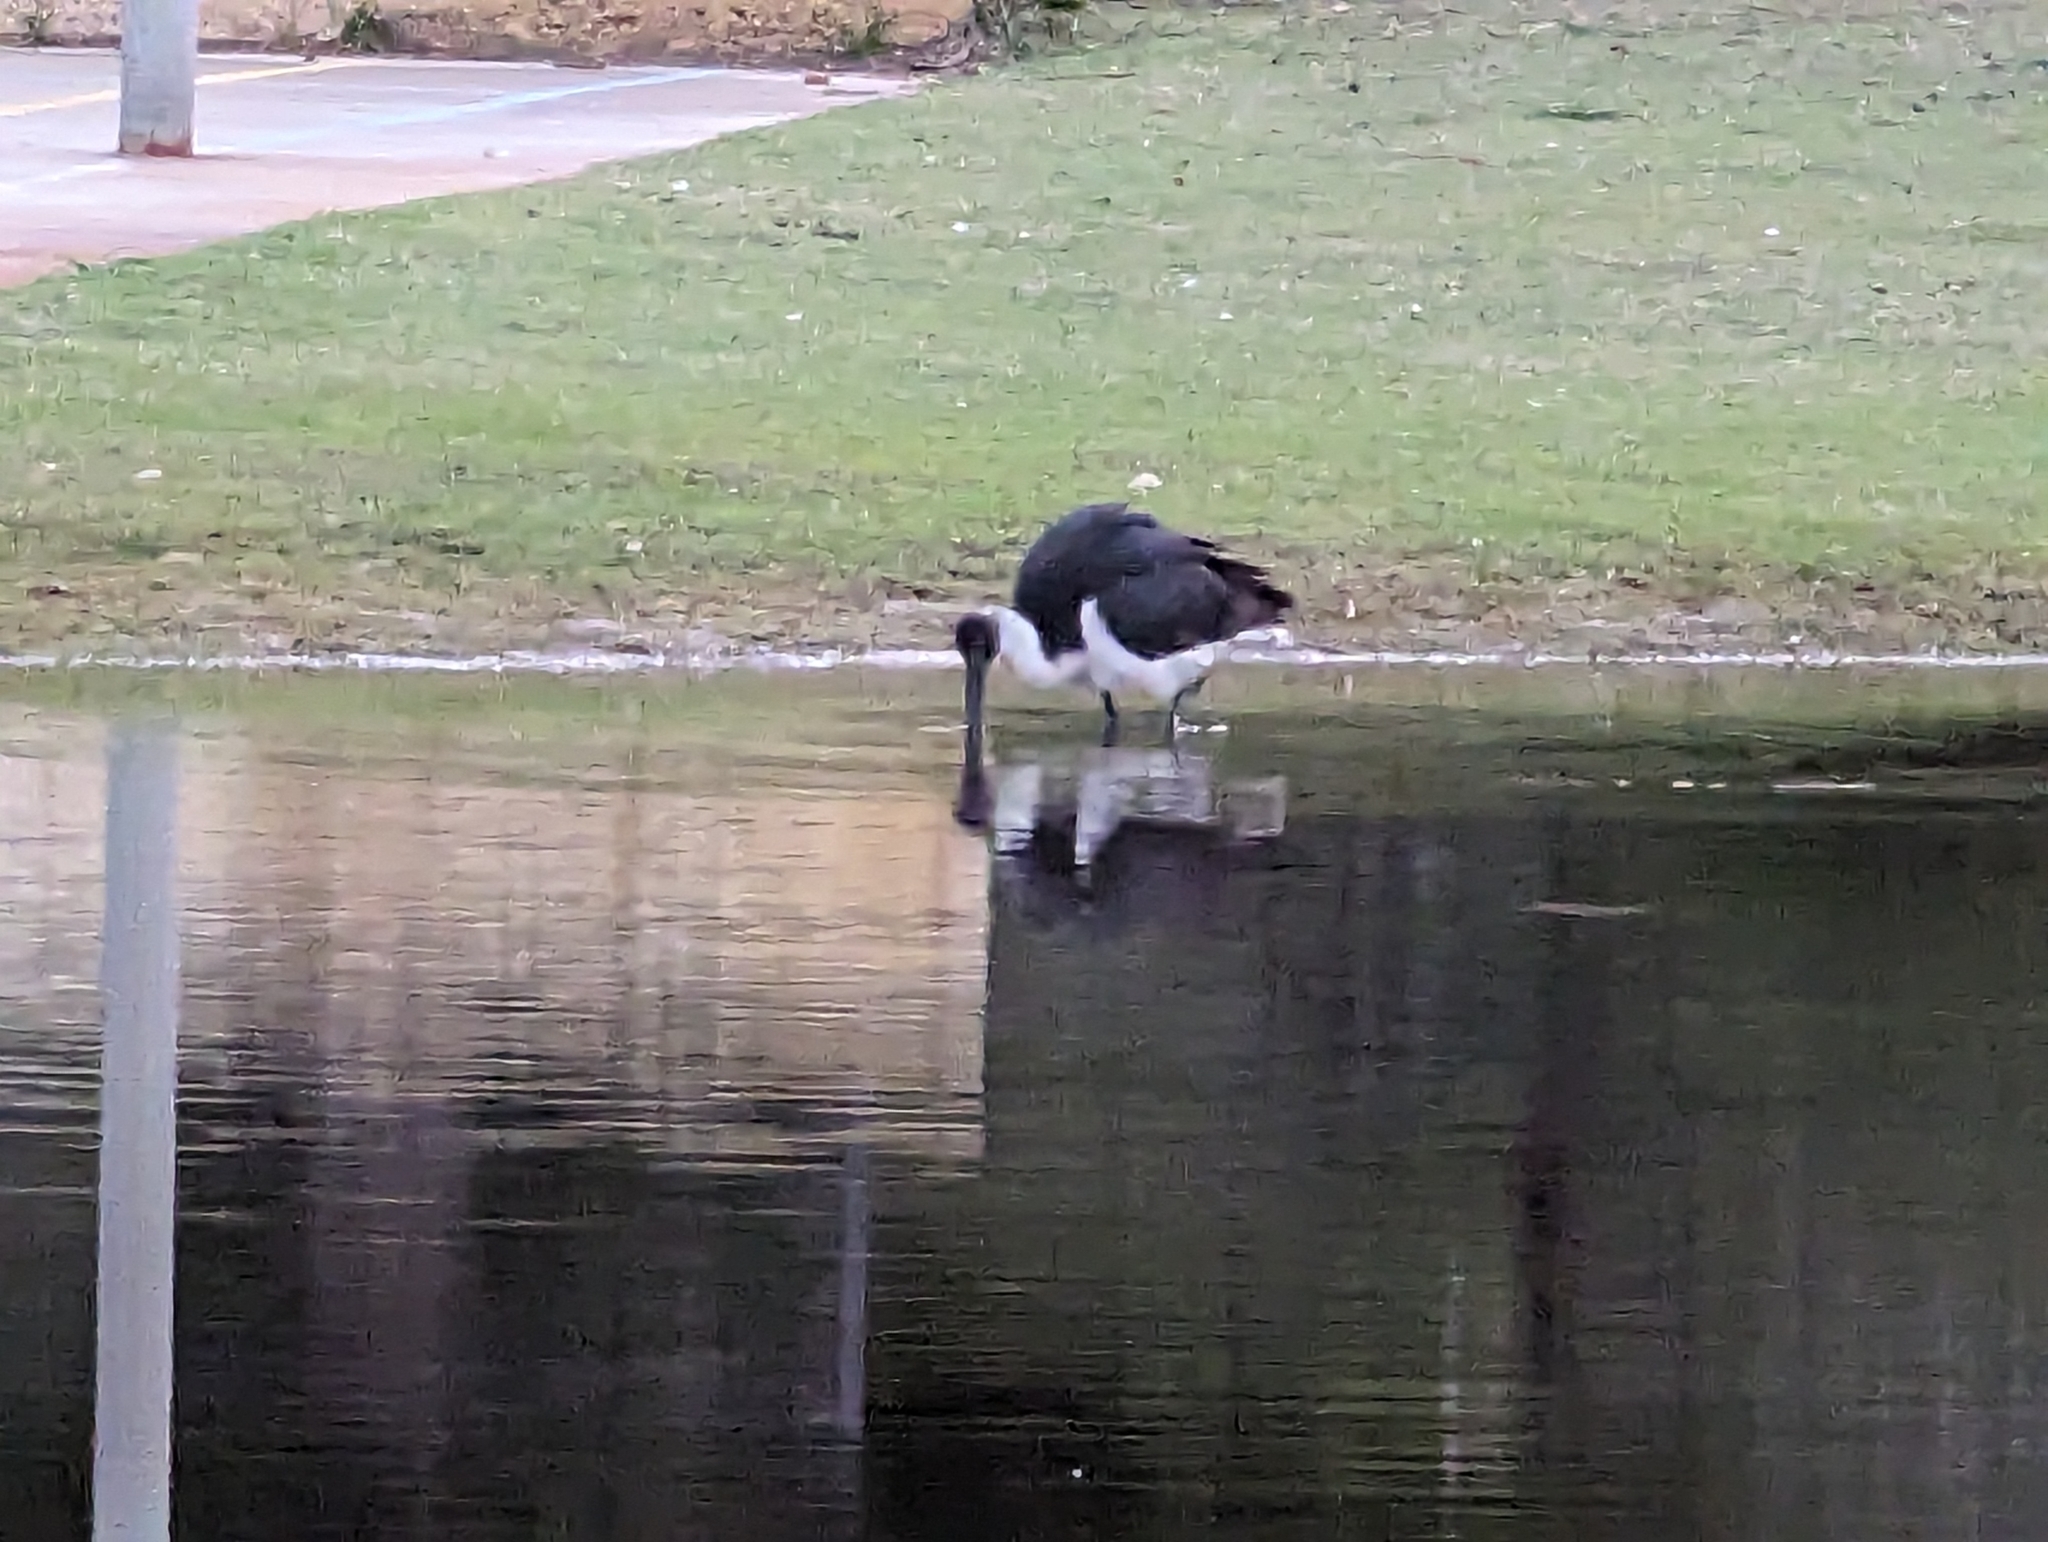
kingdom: Animalia
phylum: Chordata
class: Aves
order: Pelecaniformes
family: Threskiornithidae
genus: Threskiornis
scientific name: Threskiornis spinicollis
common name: Straw-necked ibis
